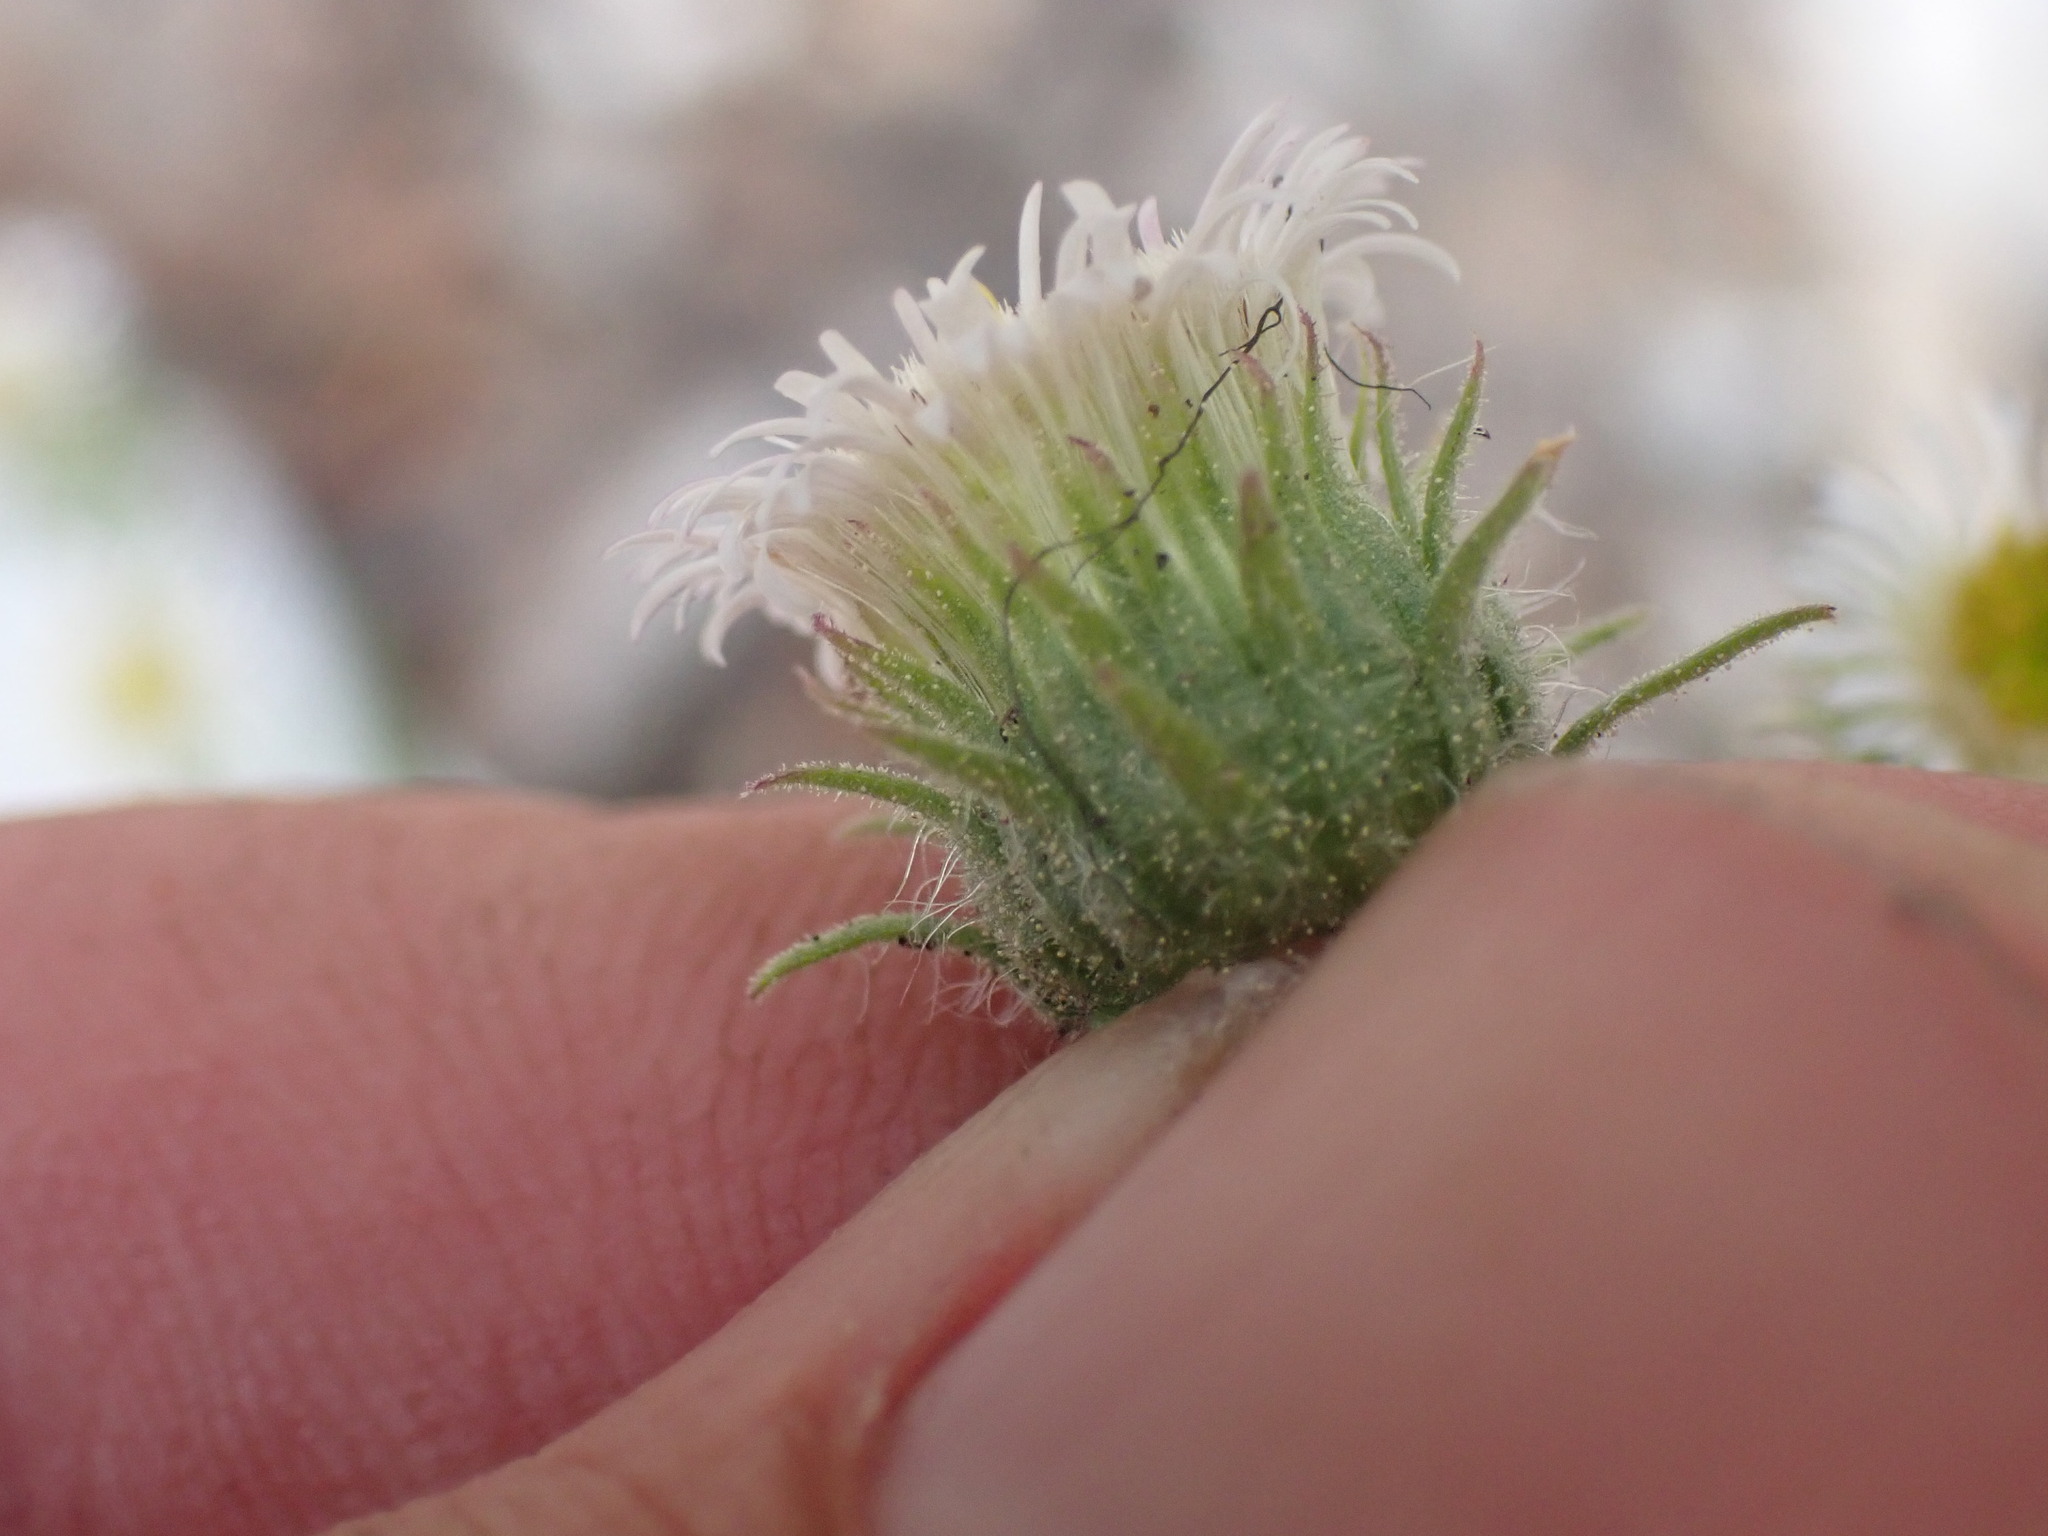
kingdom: Plantae
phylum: Tracheophyta
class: Magnoliopsida
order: Asterales
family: Asteraceae
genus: Erigeron
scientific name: Erigeron acris
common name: Blue fleabane
